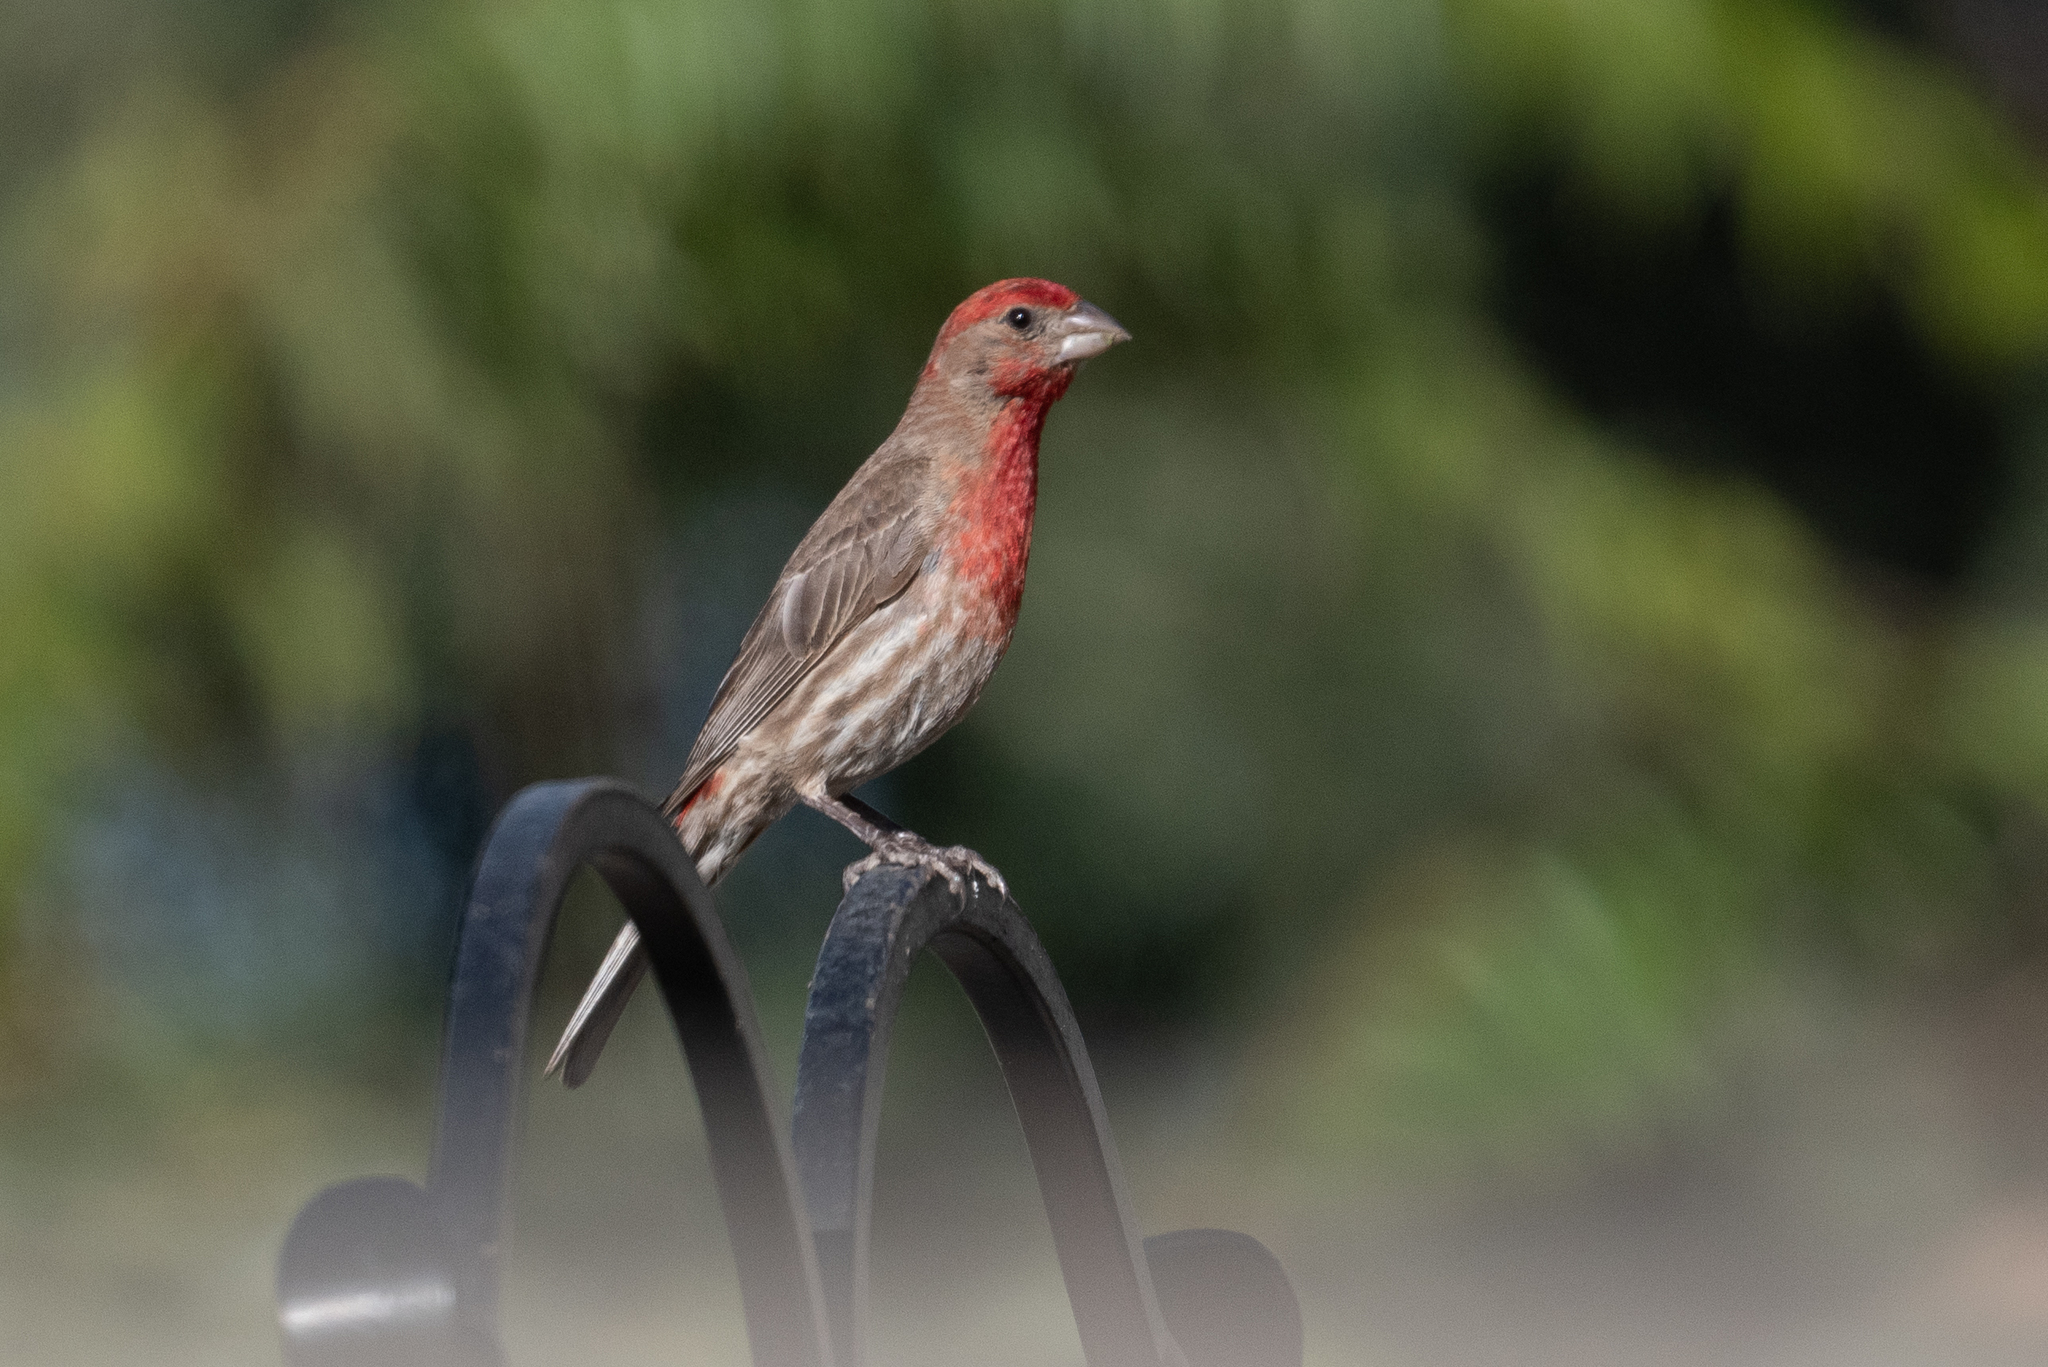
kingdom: Animalia
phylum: Chordata
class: Aves
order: Passeriformes
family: Fringillidae
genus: Haemorhous
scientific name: Haemorhous mexicanus
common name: House finch
